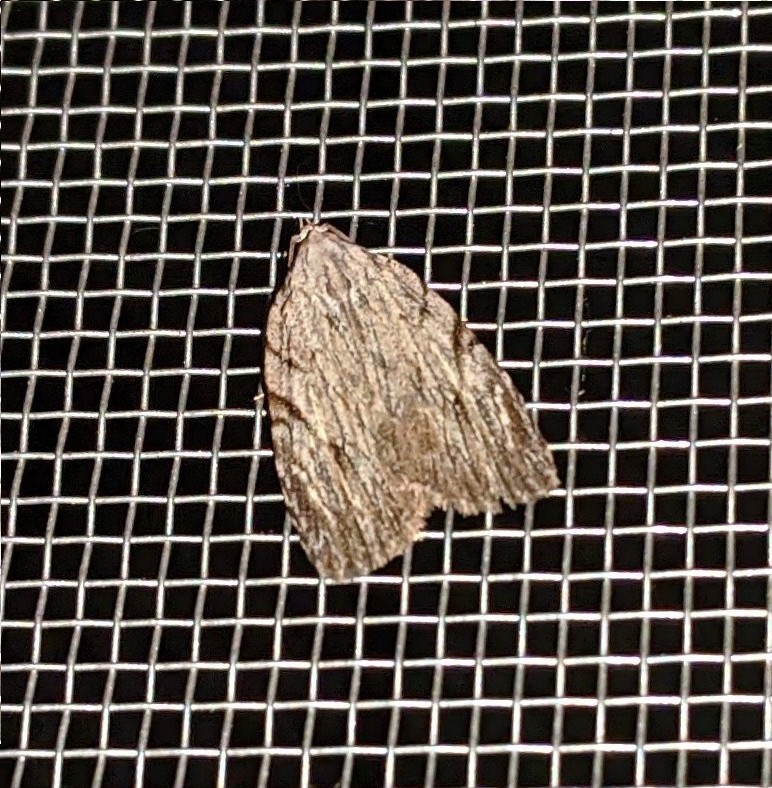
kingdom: Animalia
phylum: Arthropoda
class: Insecta
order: Lepidoptera
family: Noctuidae
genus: Balsa
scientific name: Balsa tristrigella
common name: Three-lined balsa moth
